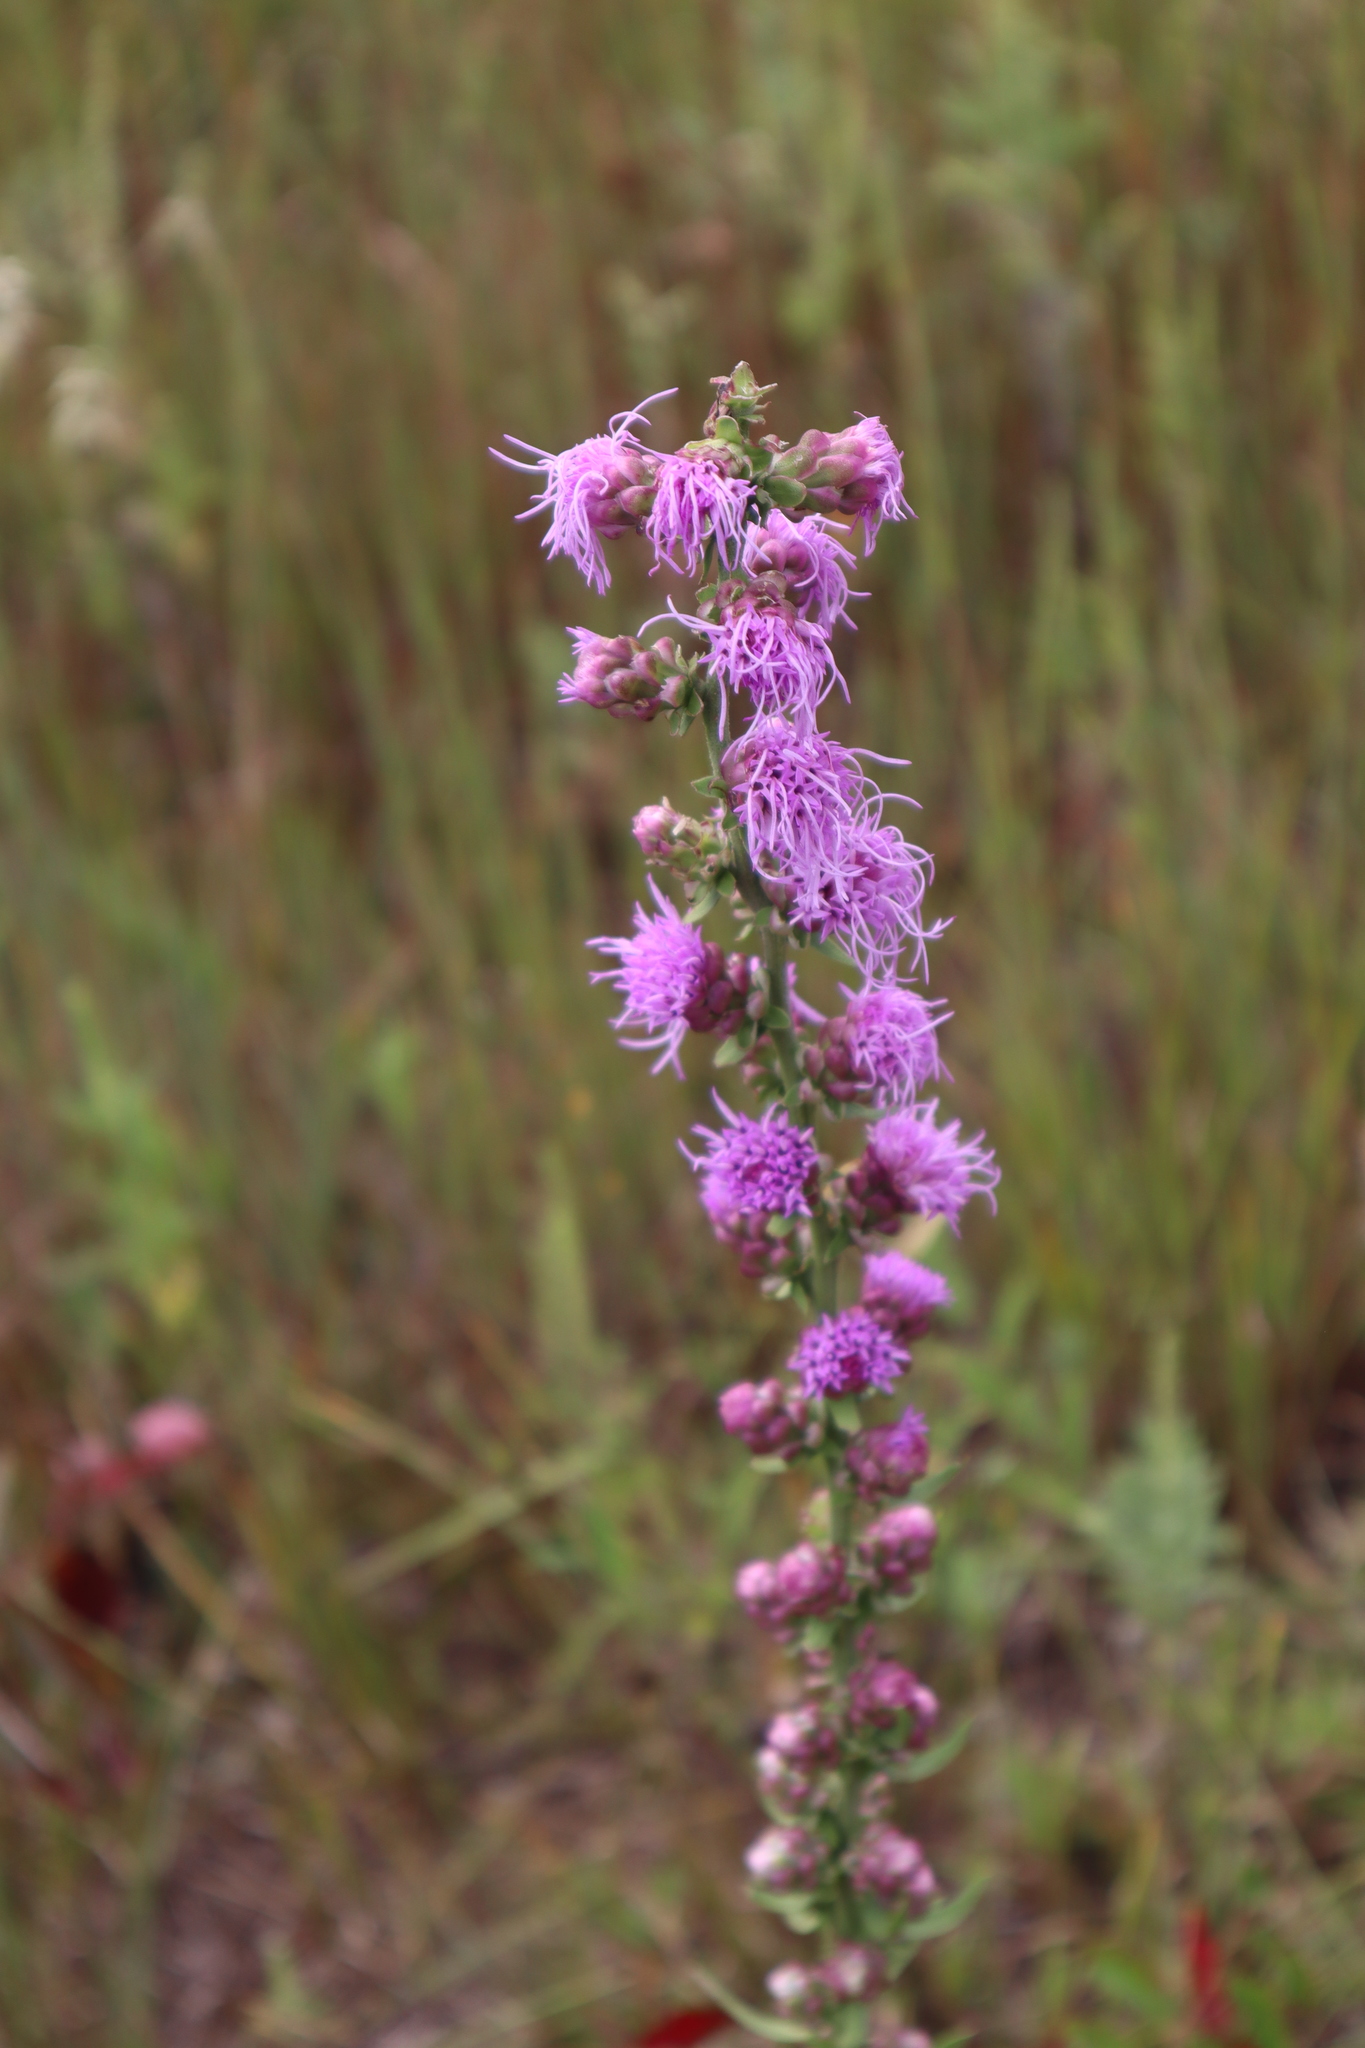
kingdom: Plantae
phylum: Tracheophyta
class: Magnoliopsida
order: Asterales
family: Asteraceae
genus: Liatris
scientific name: Liatris aspera
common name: Lacerate blazing-star
